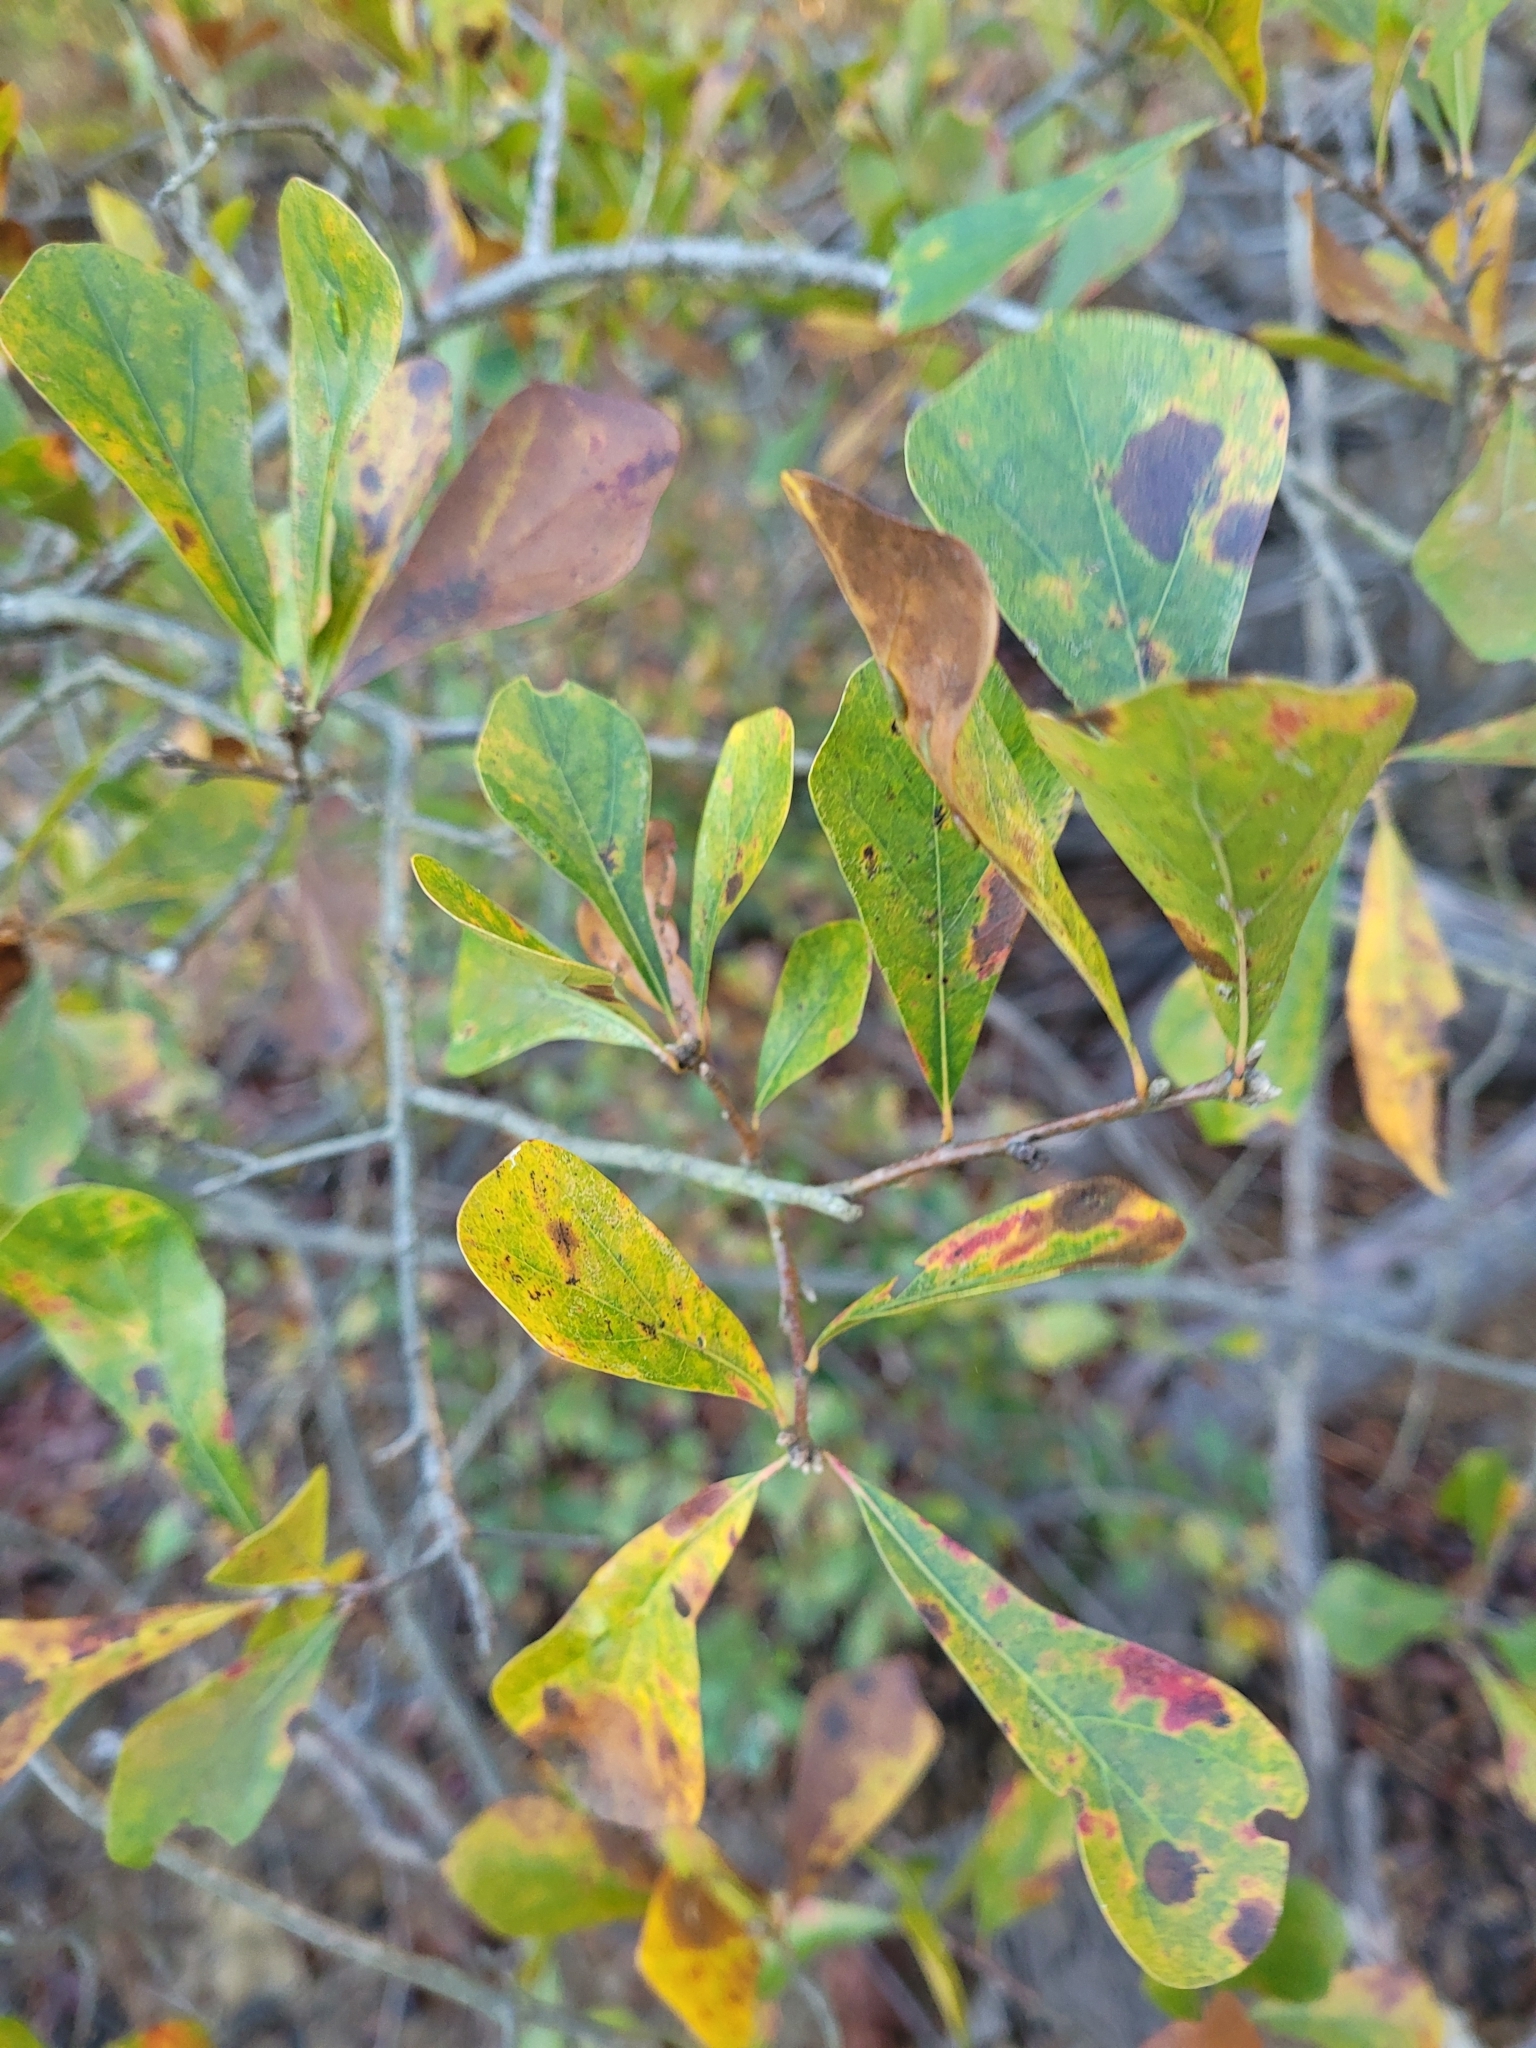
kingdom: Plantae
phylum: Tracheophyta
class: Magnoliopsida
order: Fagales
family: Fagaceae
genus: Quercus
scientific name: Quercus nigra
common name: Water oak
